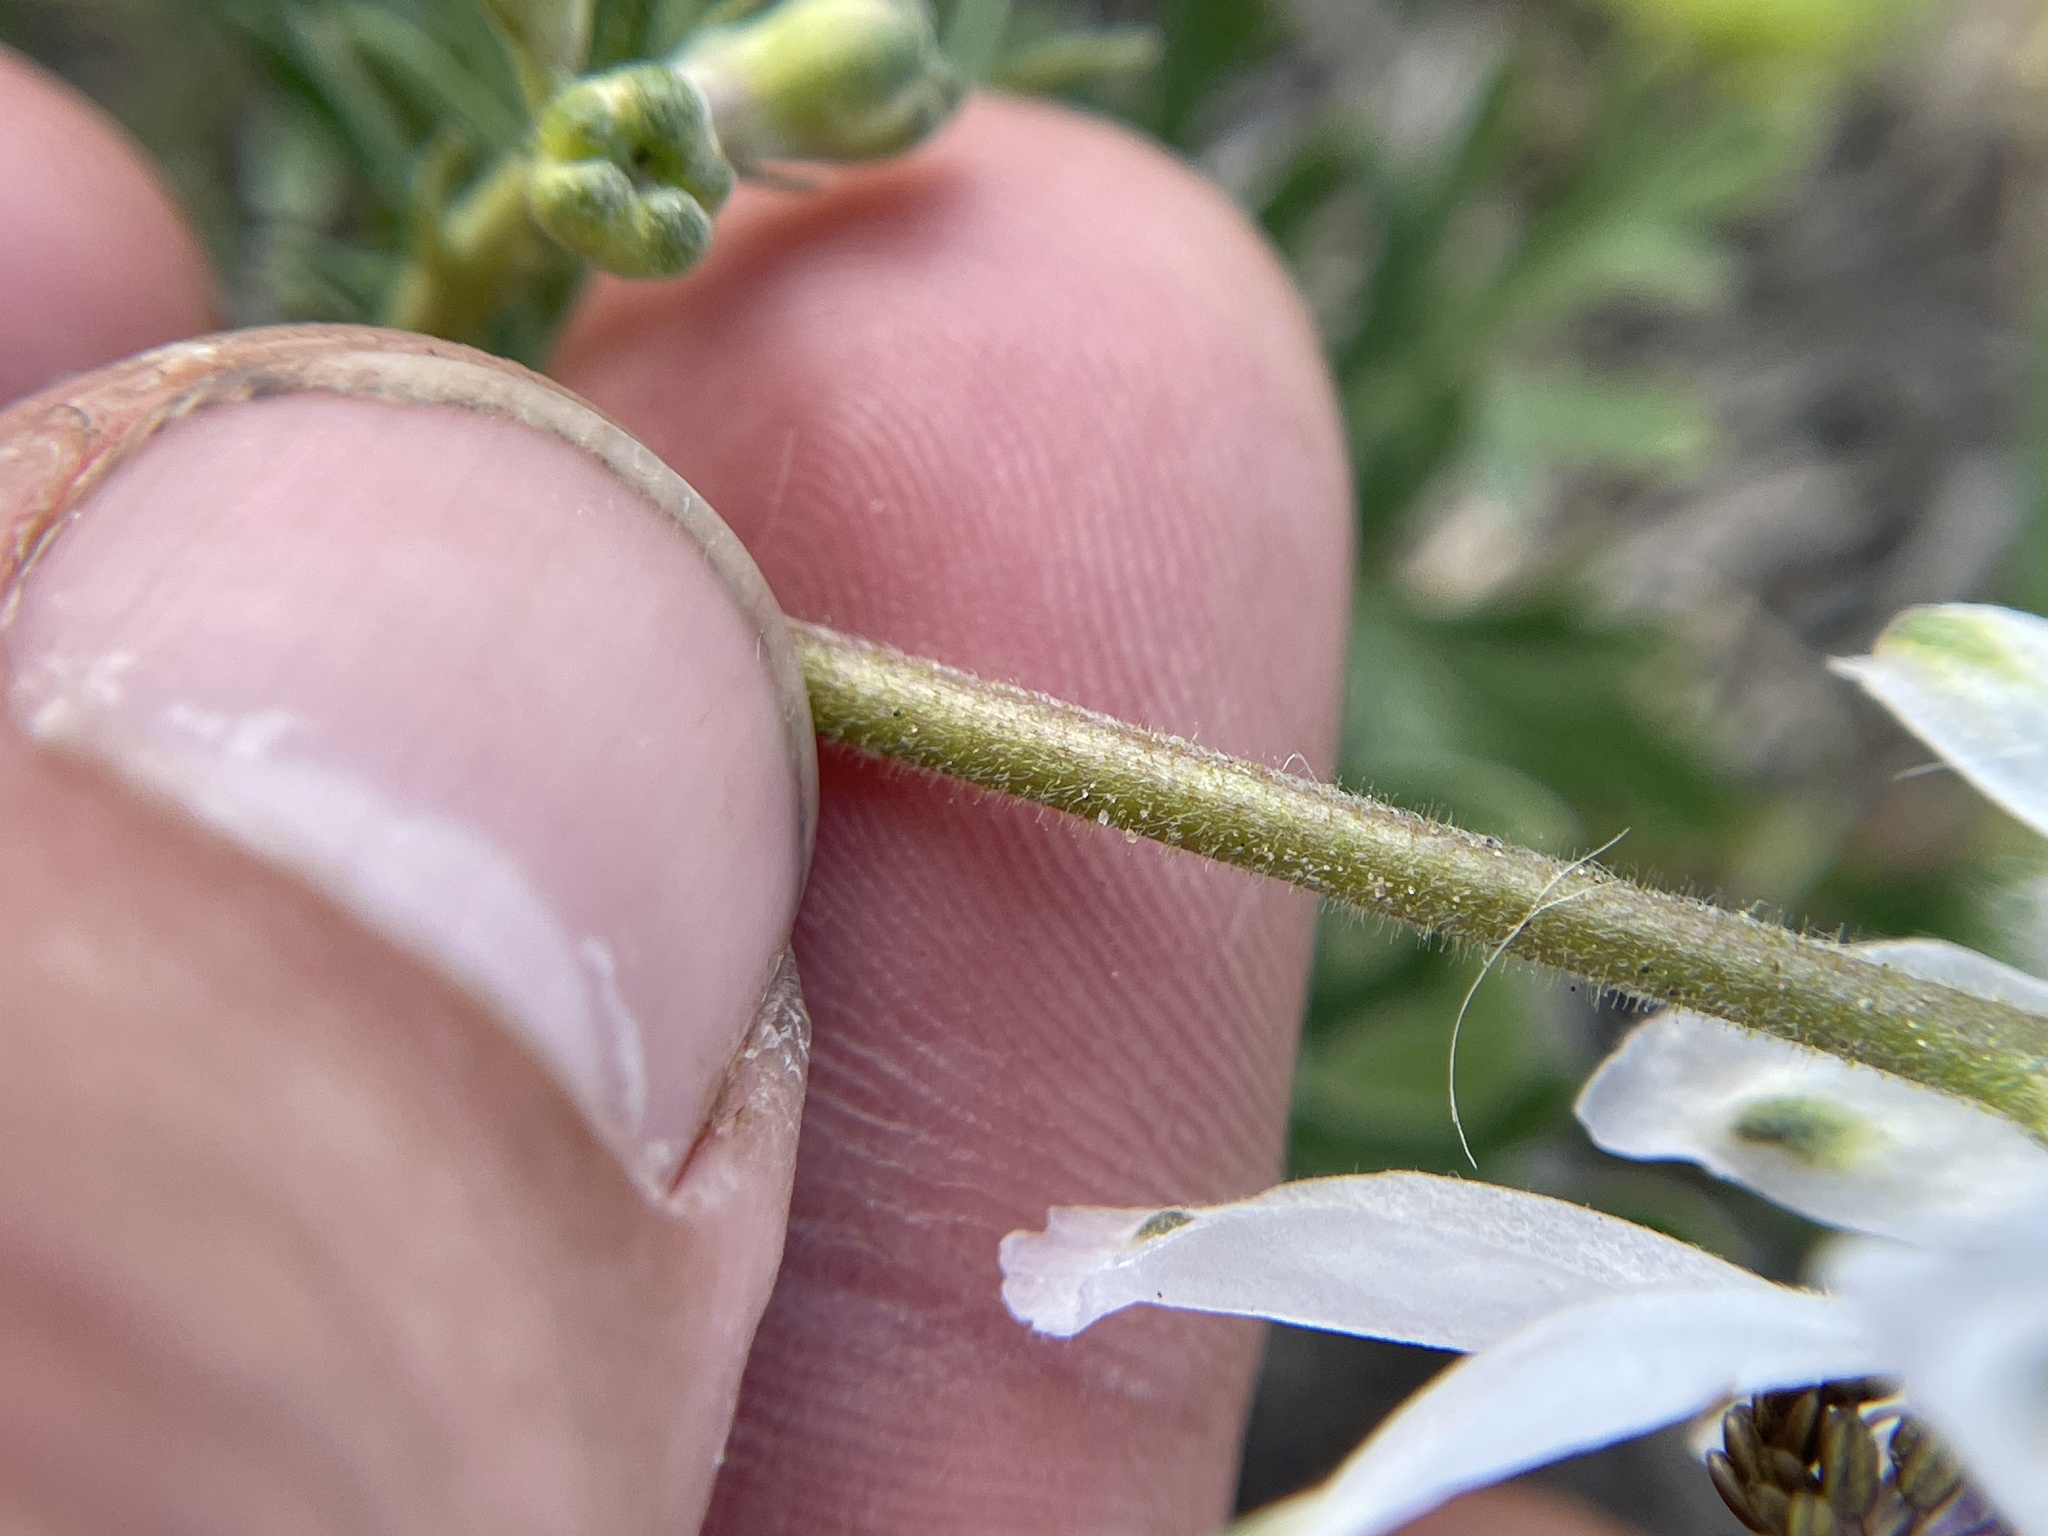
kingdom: Plantae
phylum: Tracheophyta
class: Magnoliopsida
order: Ranunculales
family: Ranunculaceae
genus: Delphinium
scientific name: Delphinium carolinianum
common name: Carolina larkspur
